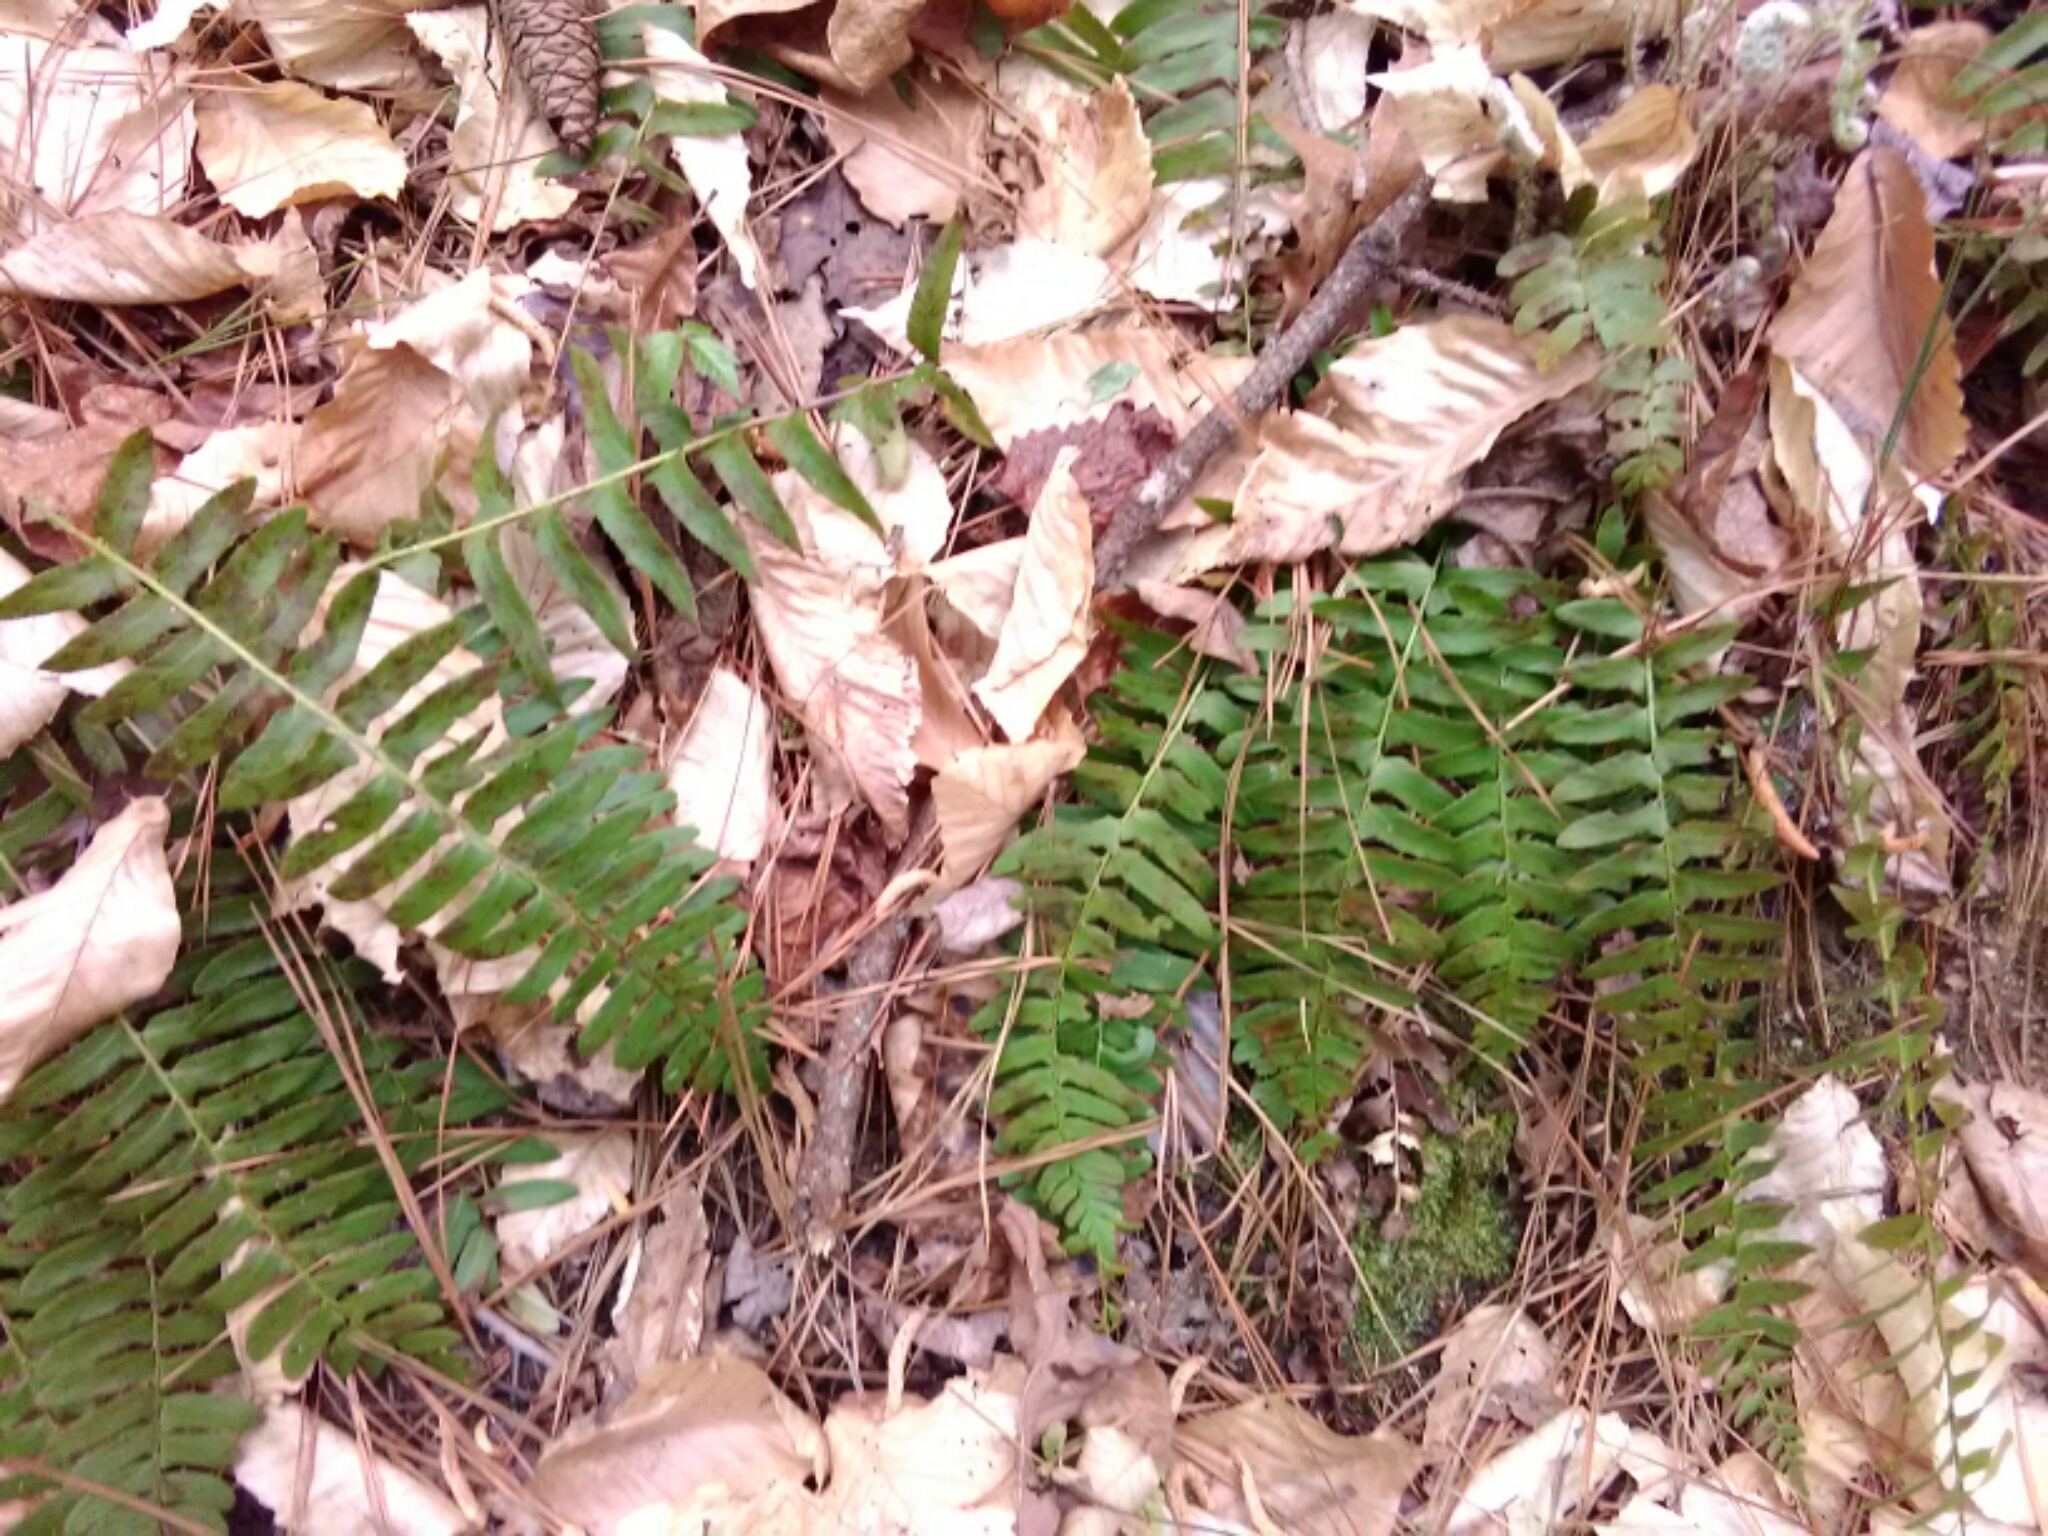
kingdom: Plantae
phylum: Tracheophyta
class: Polypodiopsida
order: Polypodiales
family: Dryopteridaceae
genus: Polystichum
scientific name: Polystichum acrostichoides
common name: Christmas fern
